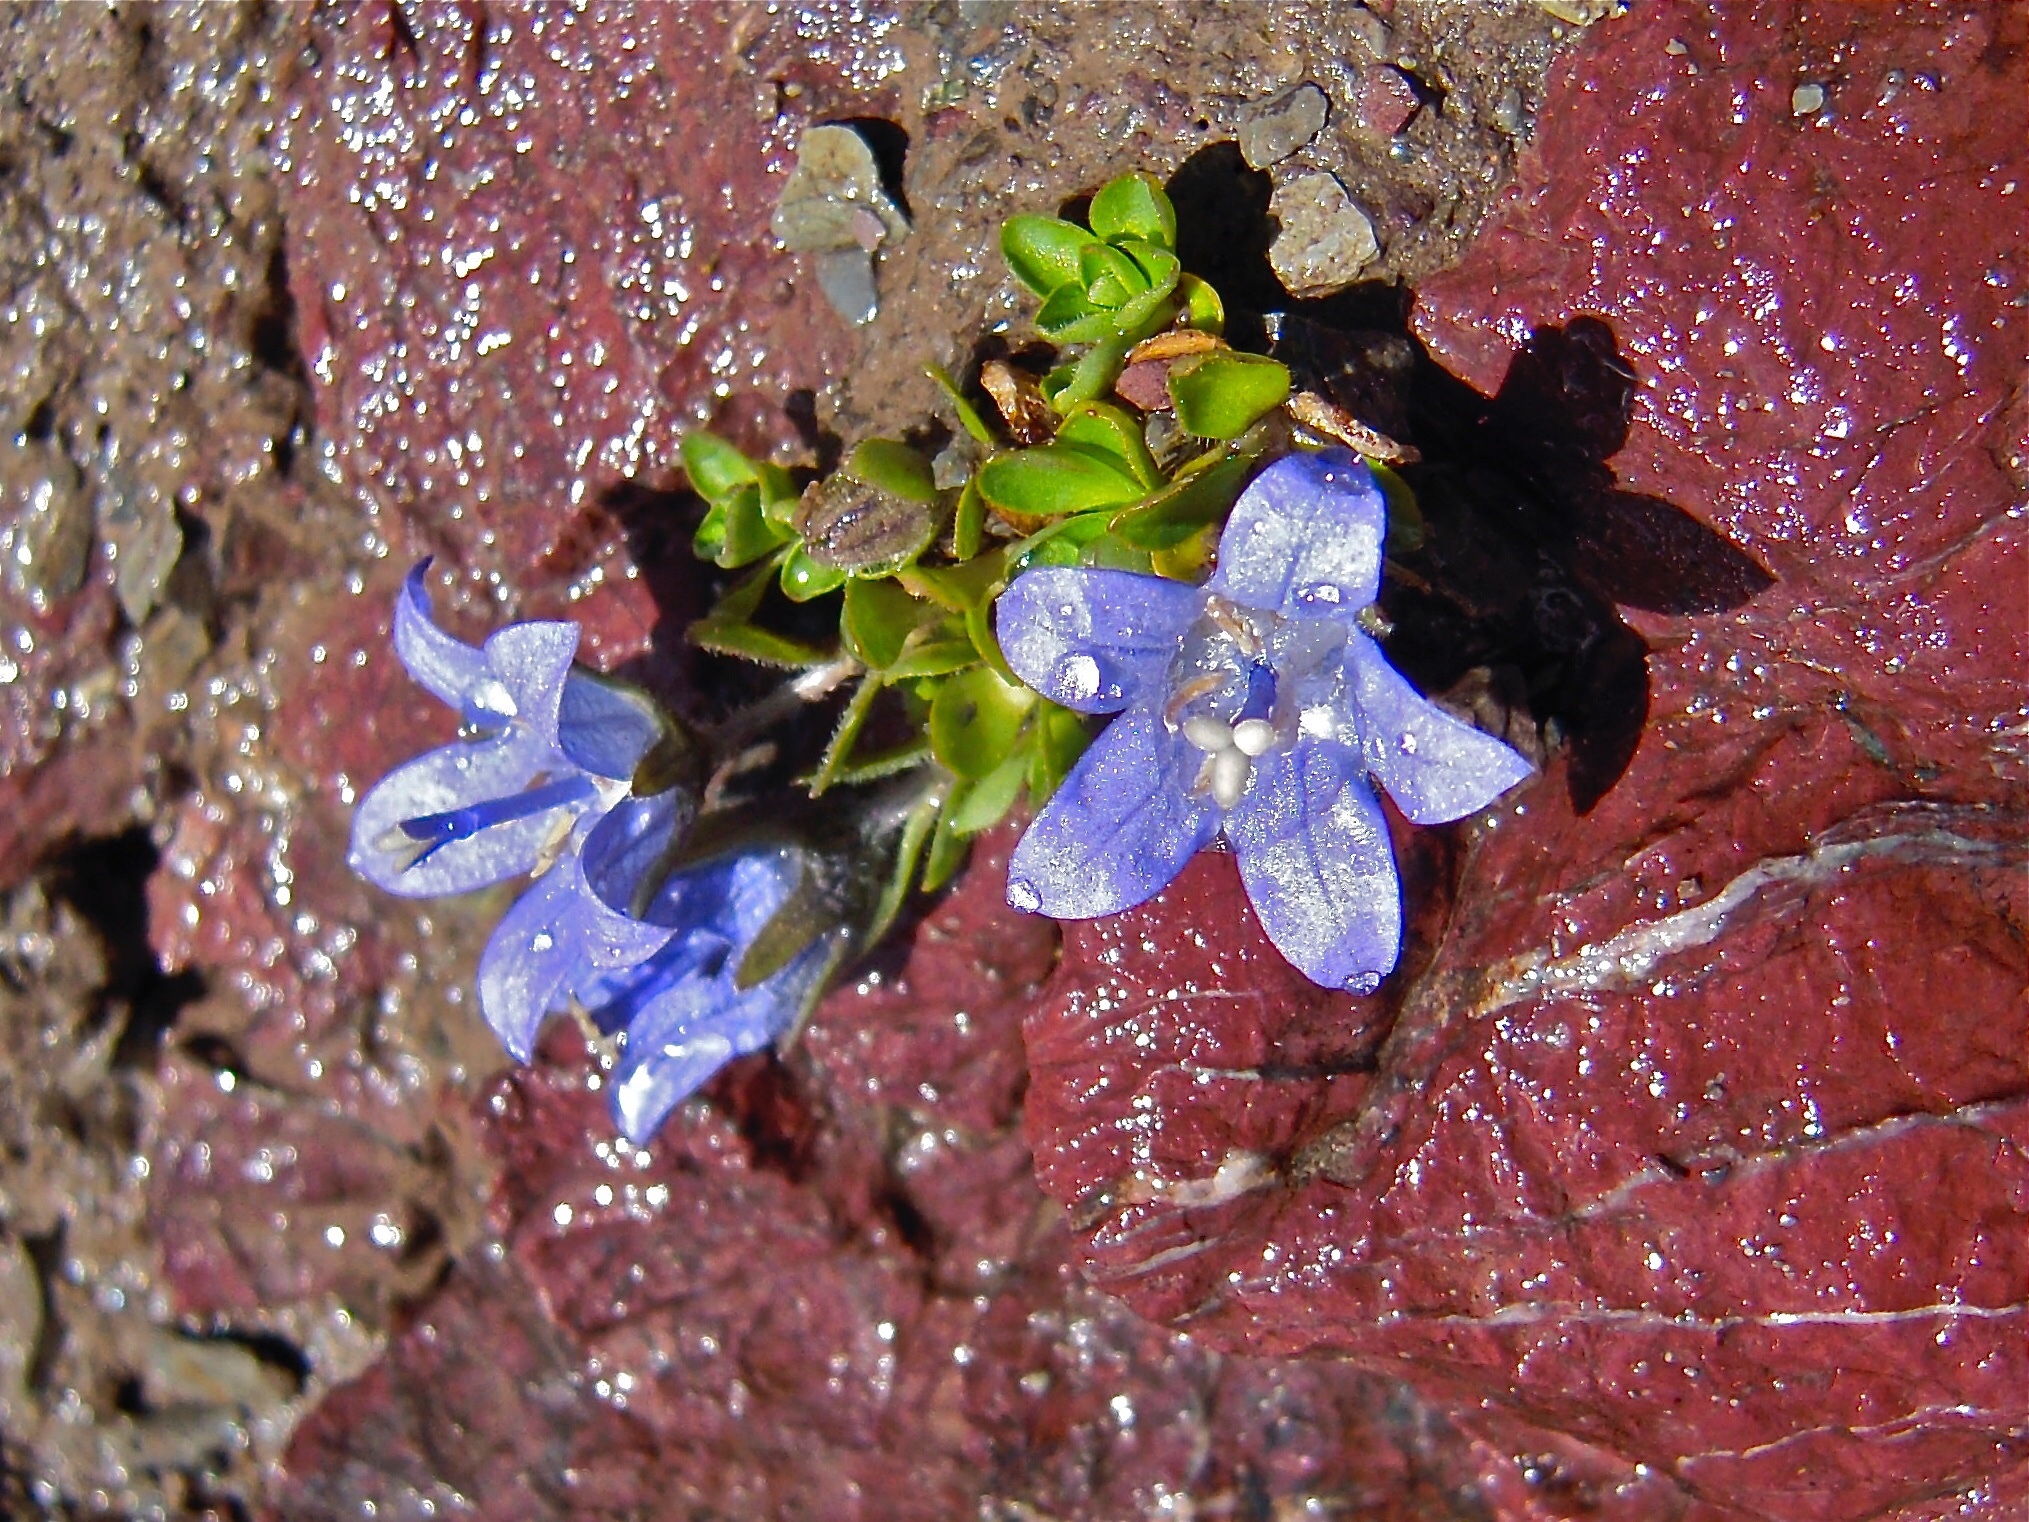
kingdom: Plantae
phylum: Tracheophyta
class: Magnoliopsida
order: Asterales
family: Campanulaceae
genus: Campanula
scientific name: Campanula cenisia
